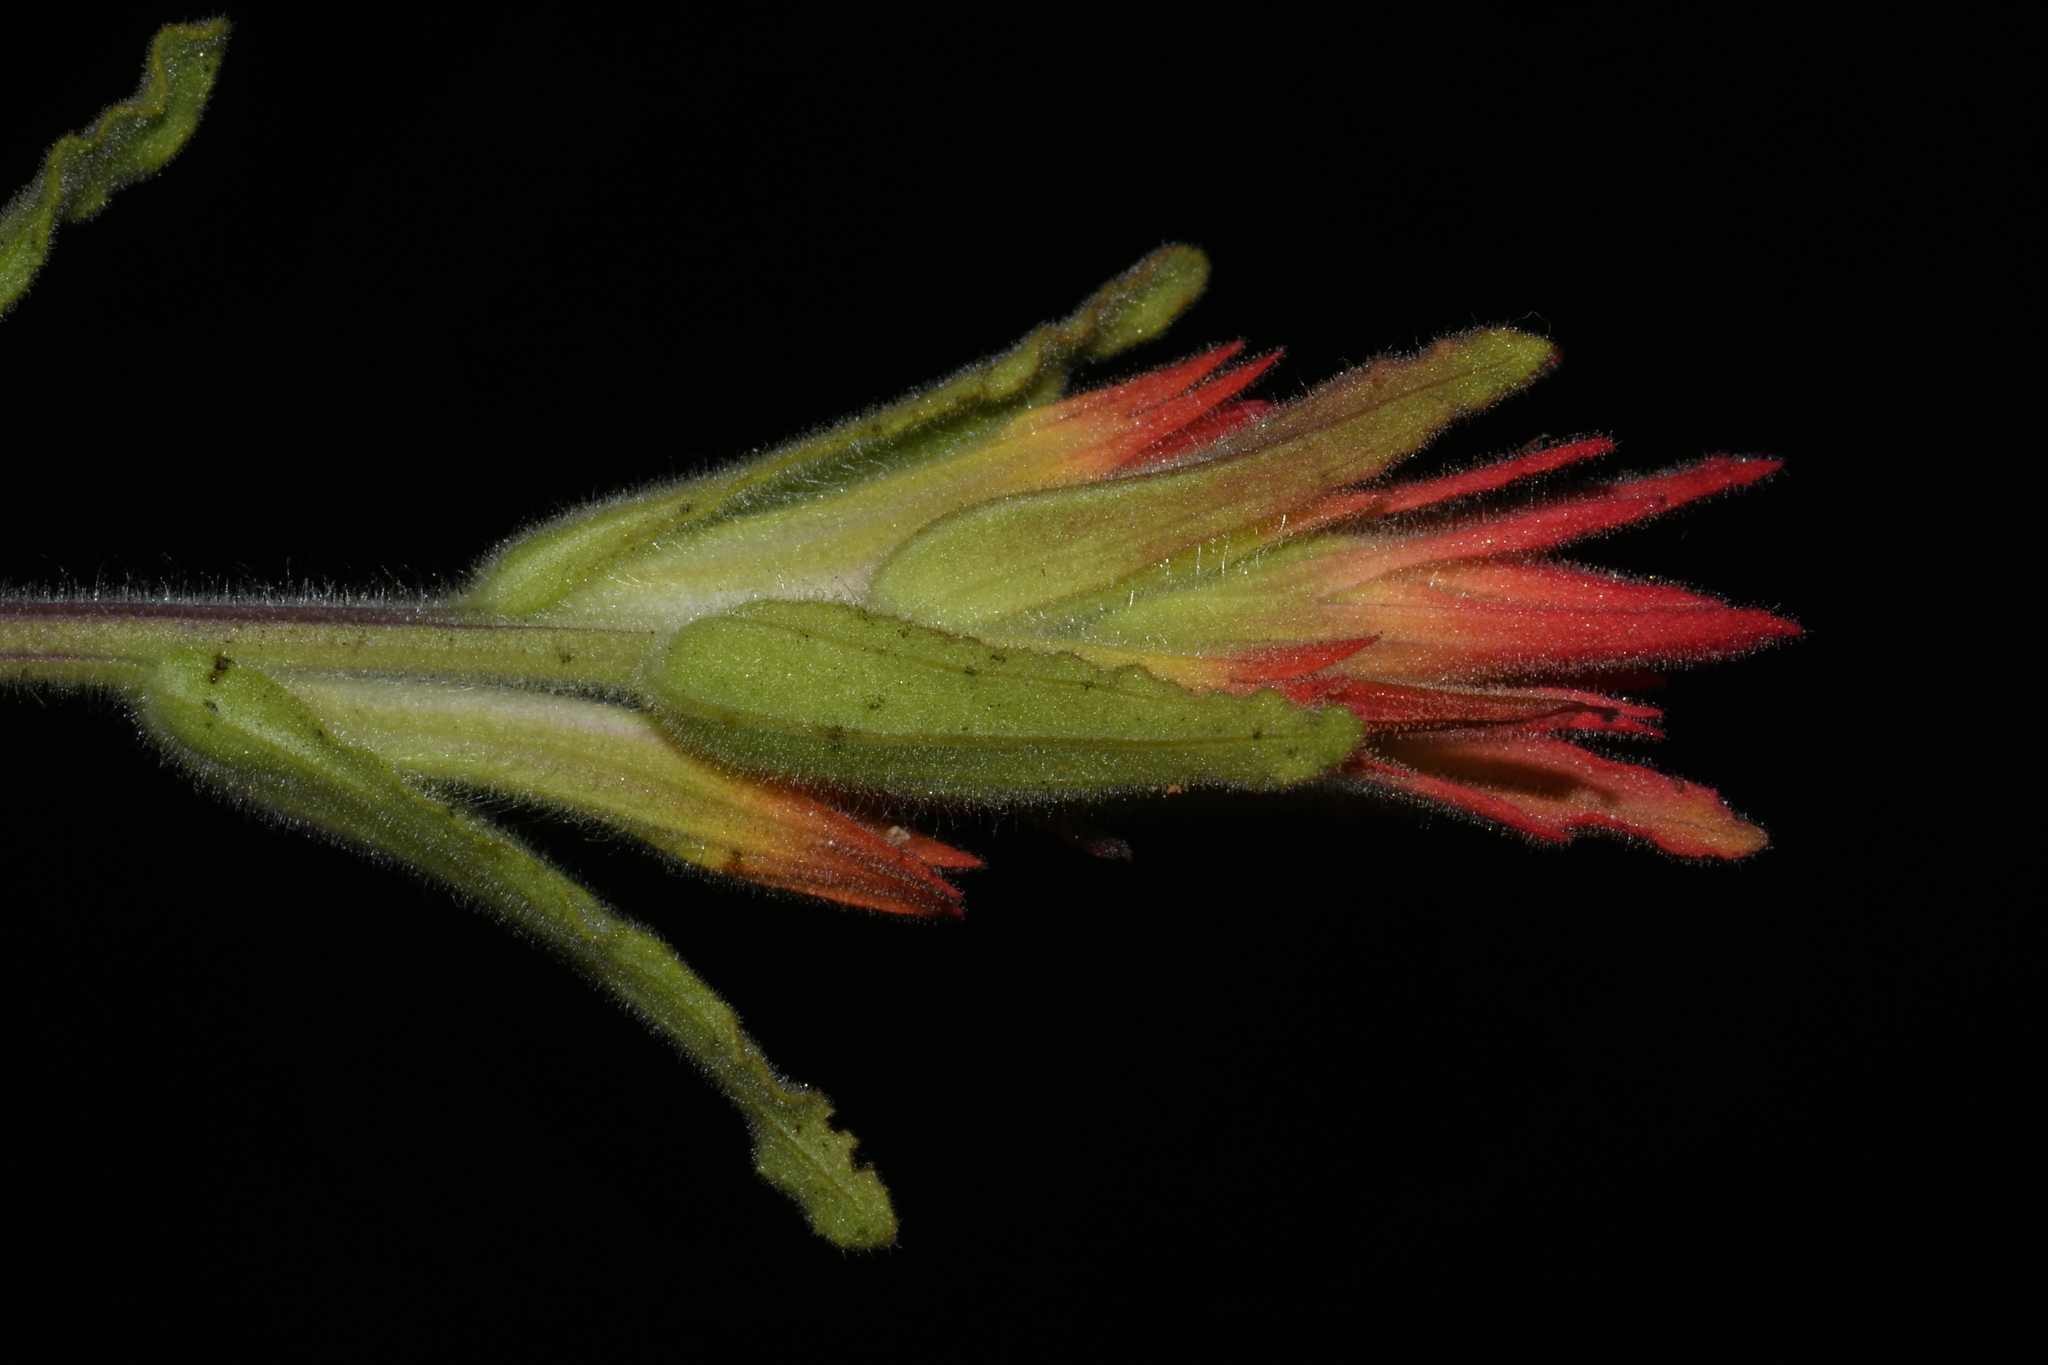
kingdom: Plantae
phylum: Tracheophyta
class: Magnoliopsida
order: Lamiales
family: Orobanchaceae
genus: Castilleja
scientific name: Castilleja applegatei
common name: Wavy-leaf paintbrush
